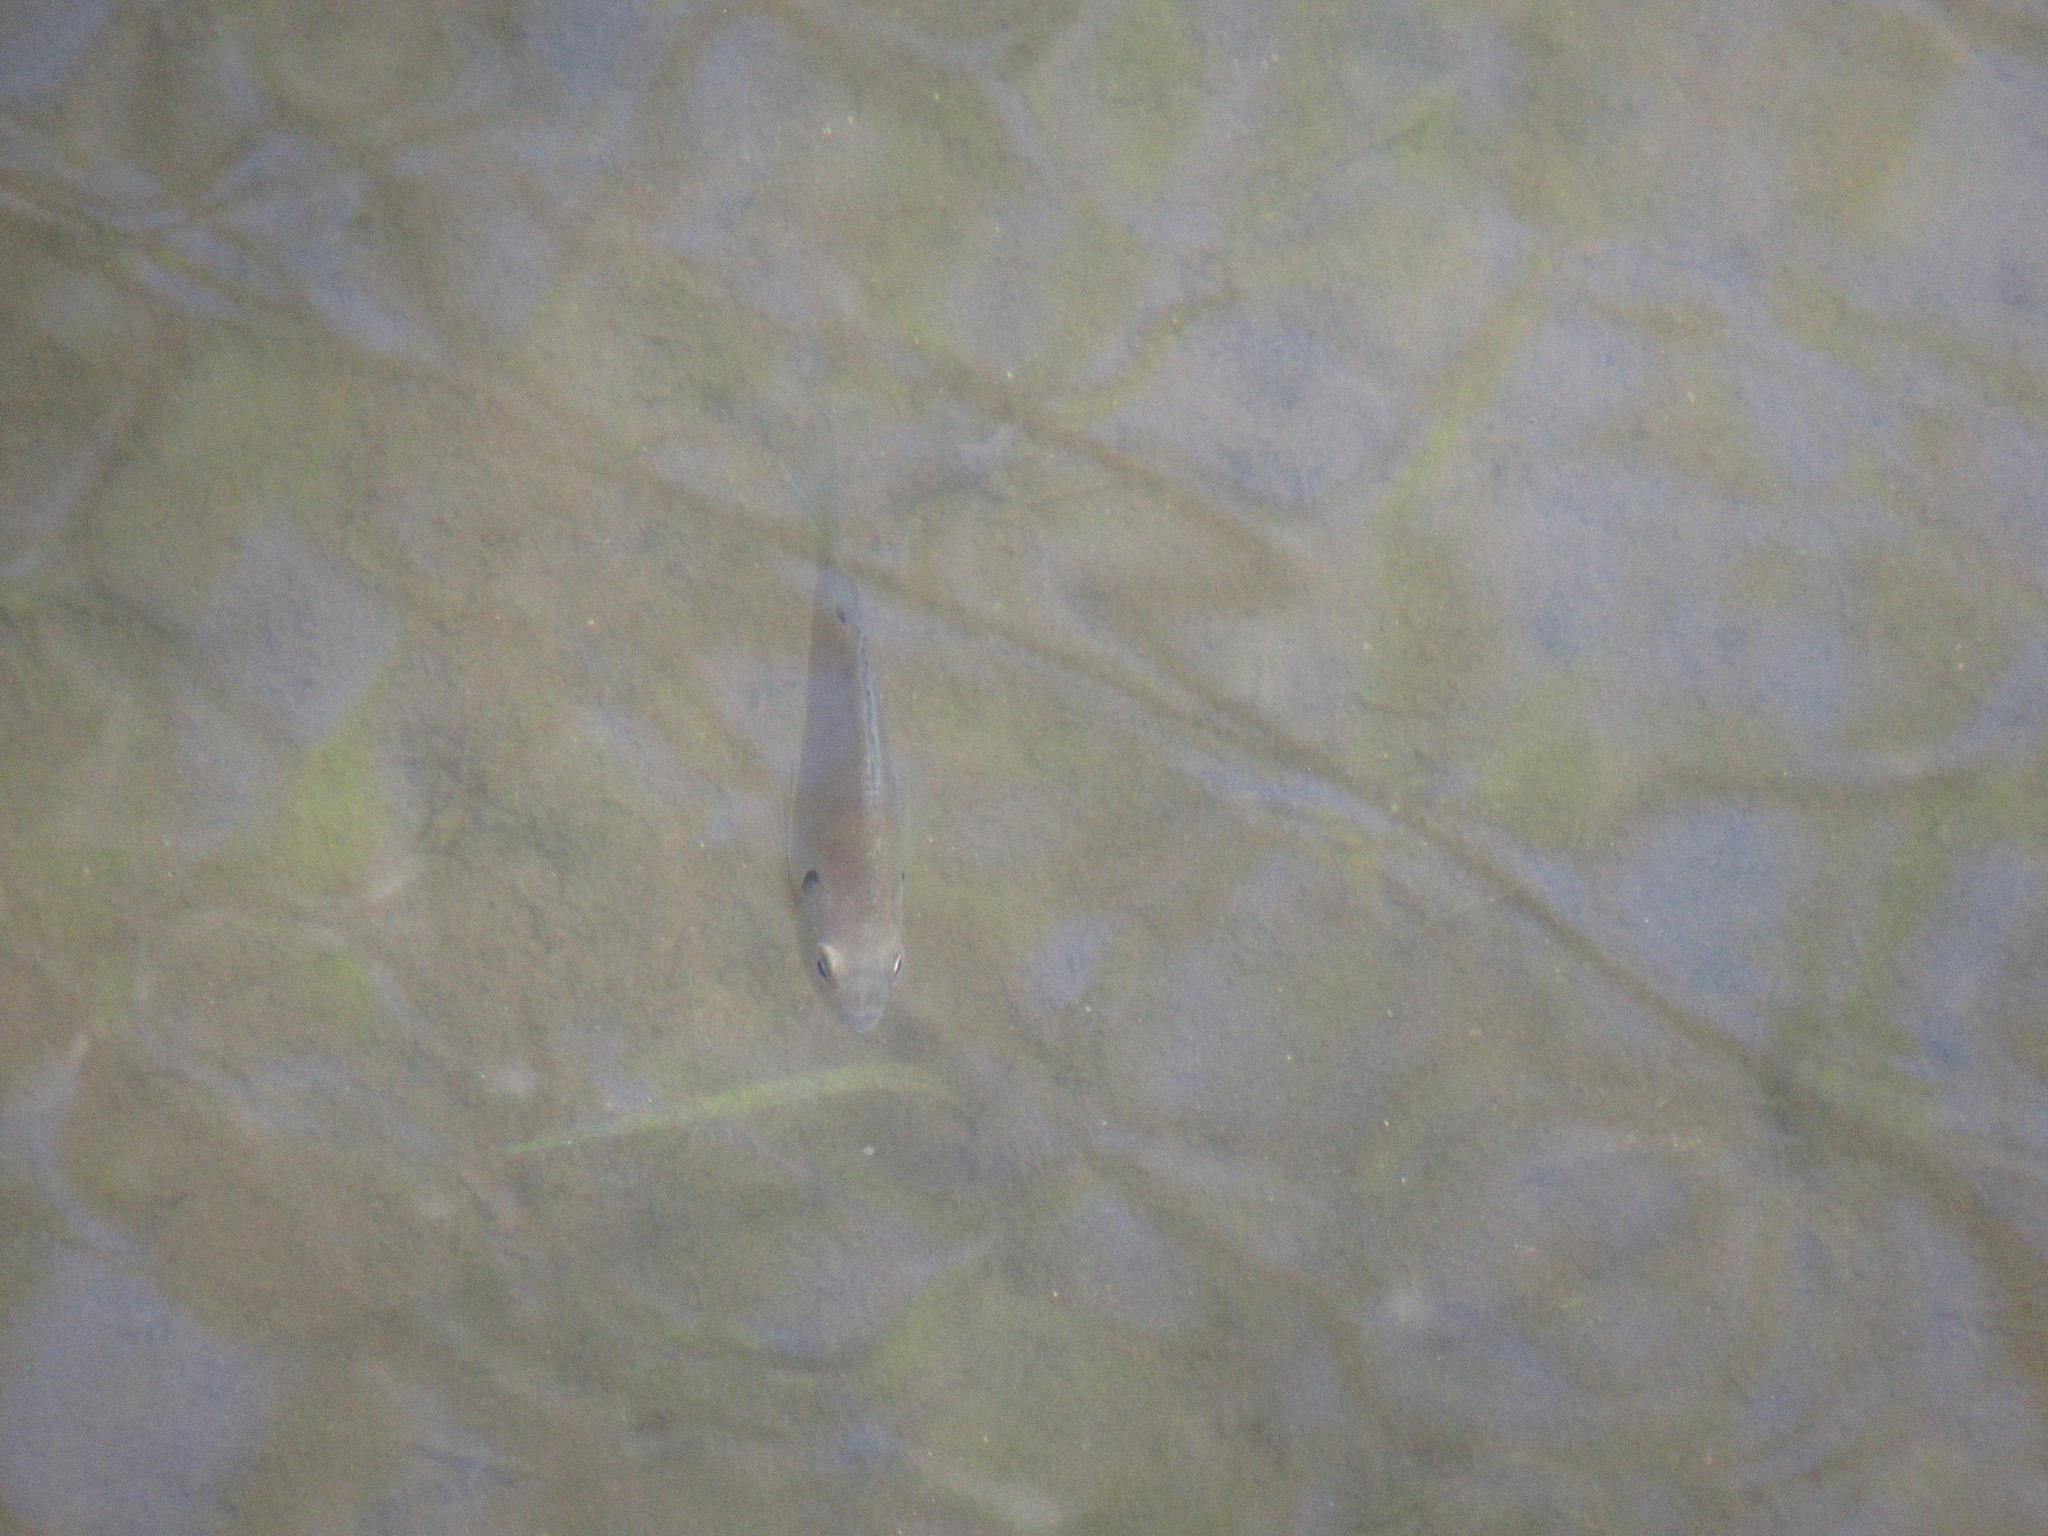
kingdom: Animalia
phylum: Chordata
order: Perciformes
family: Centrarchidae
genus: Lepomis
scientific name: Lepomis macrochirus
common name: Bluegill
